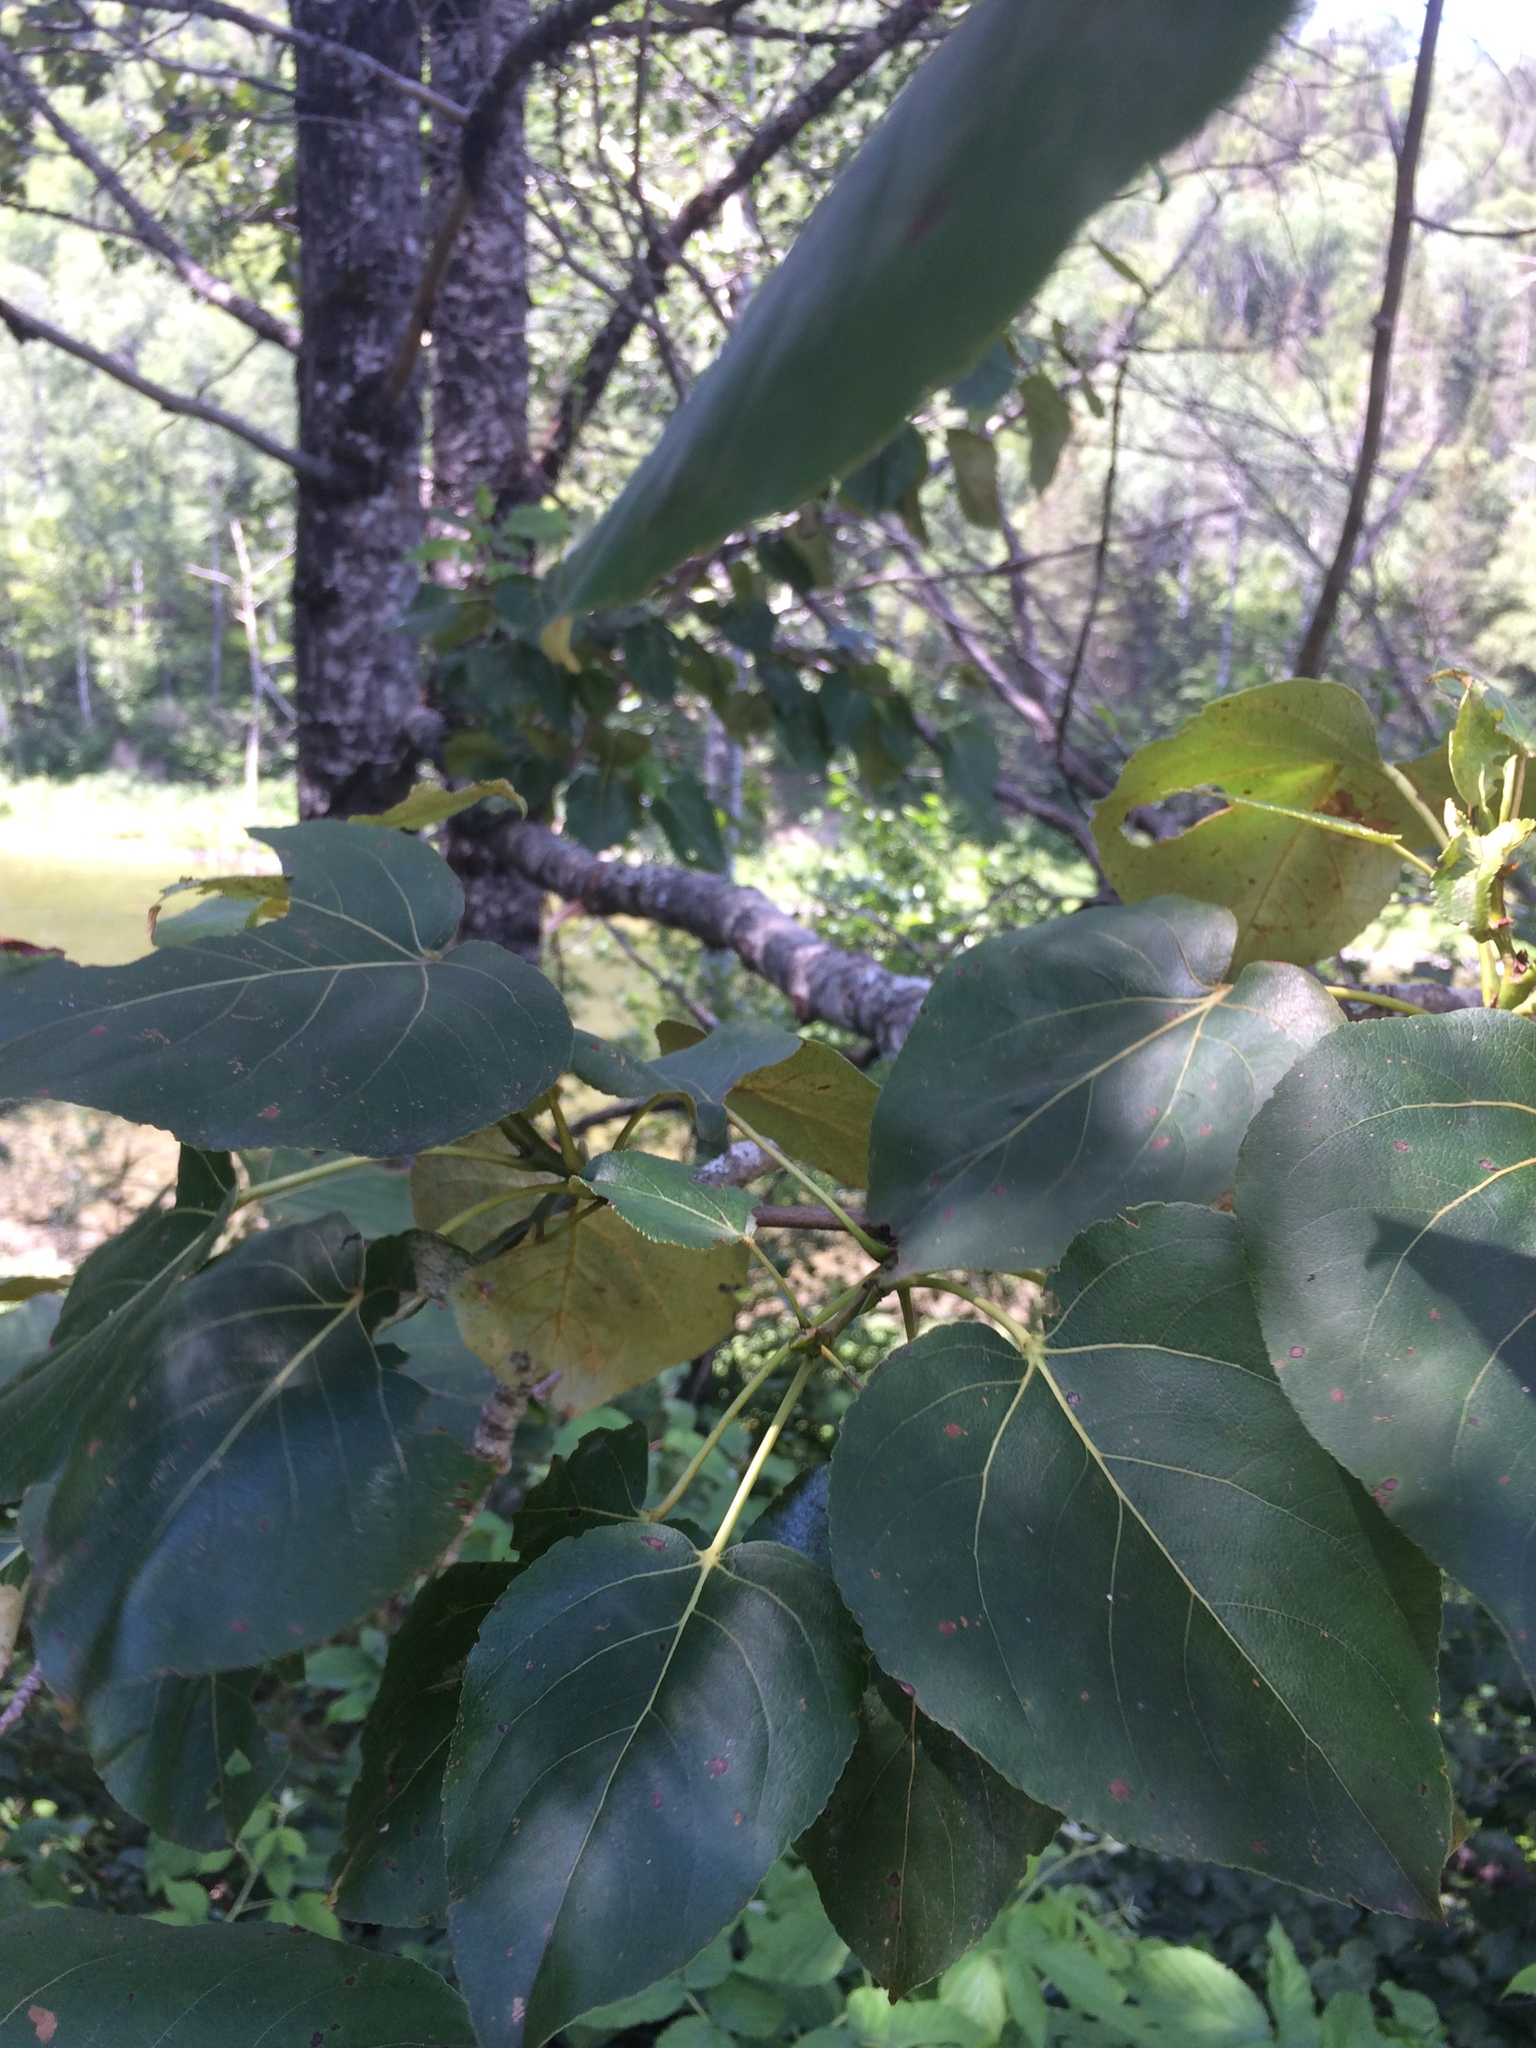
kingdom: Plantae
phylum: Tracheophyta
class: Magnoliopsida
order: Malpighiales
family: Salicaceae
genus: Populus
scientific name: Populus balsamifera
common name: Balsam poplar
